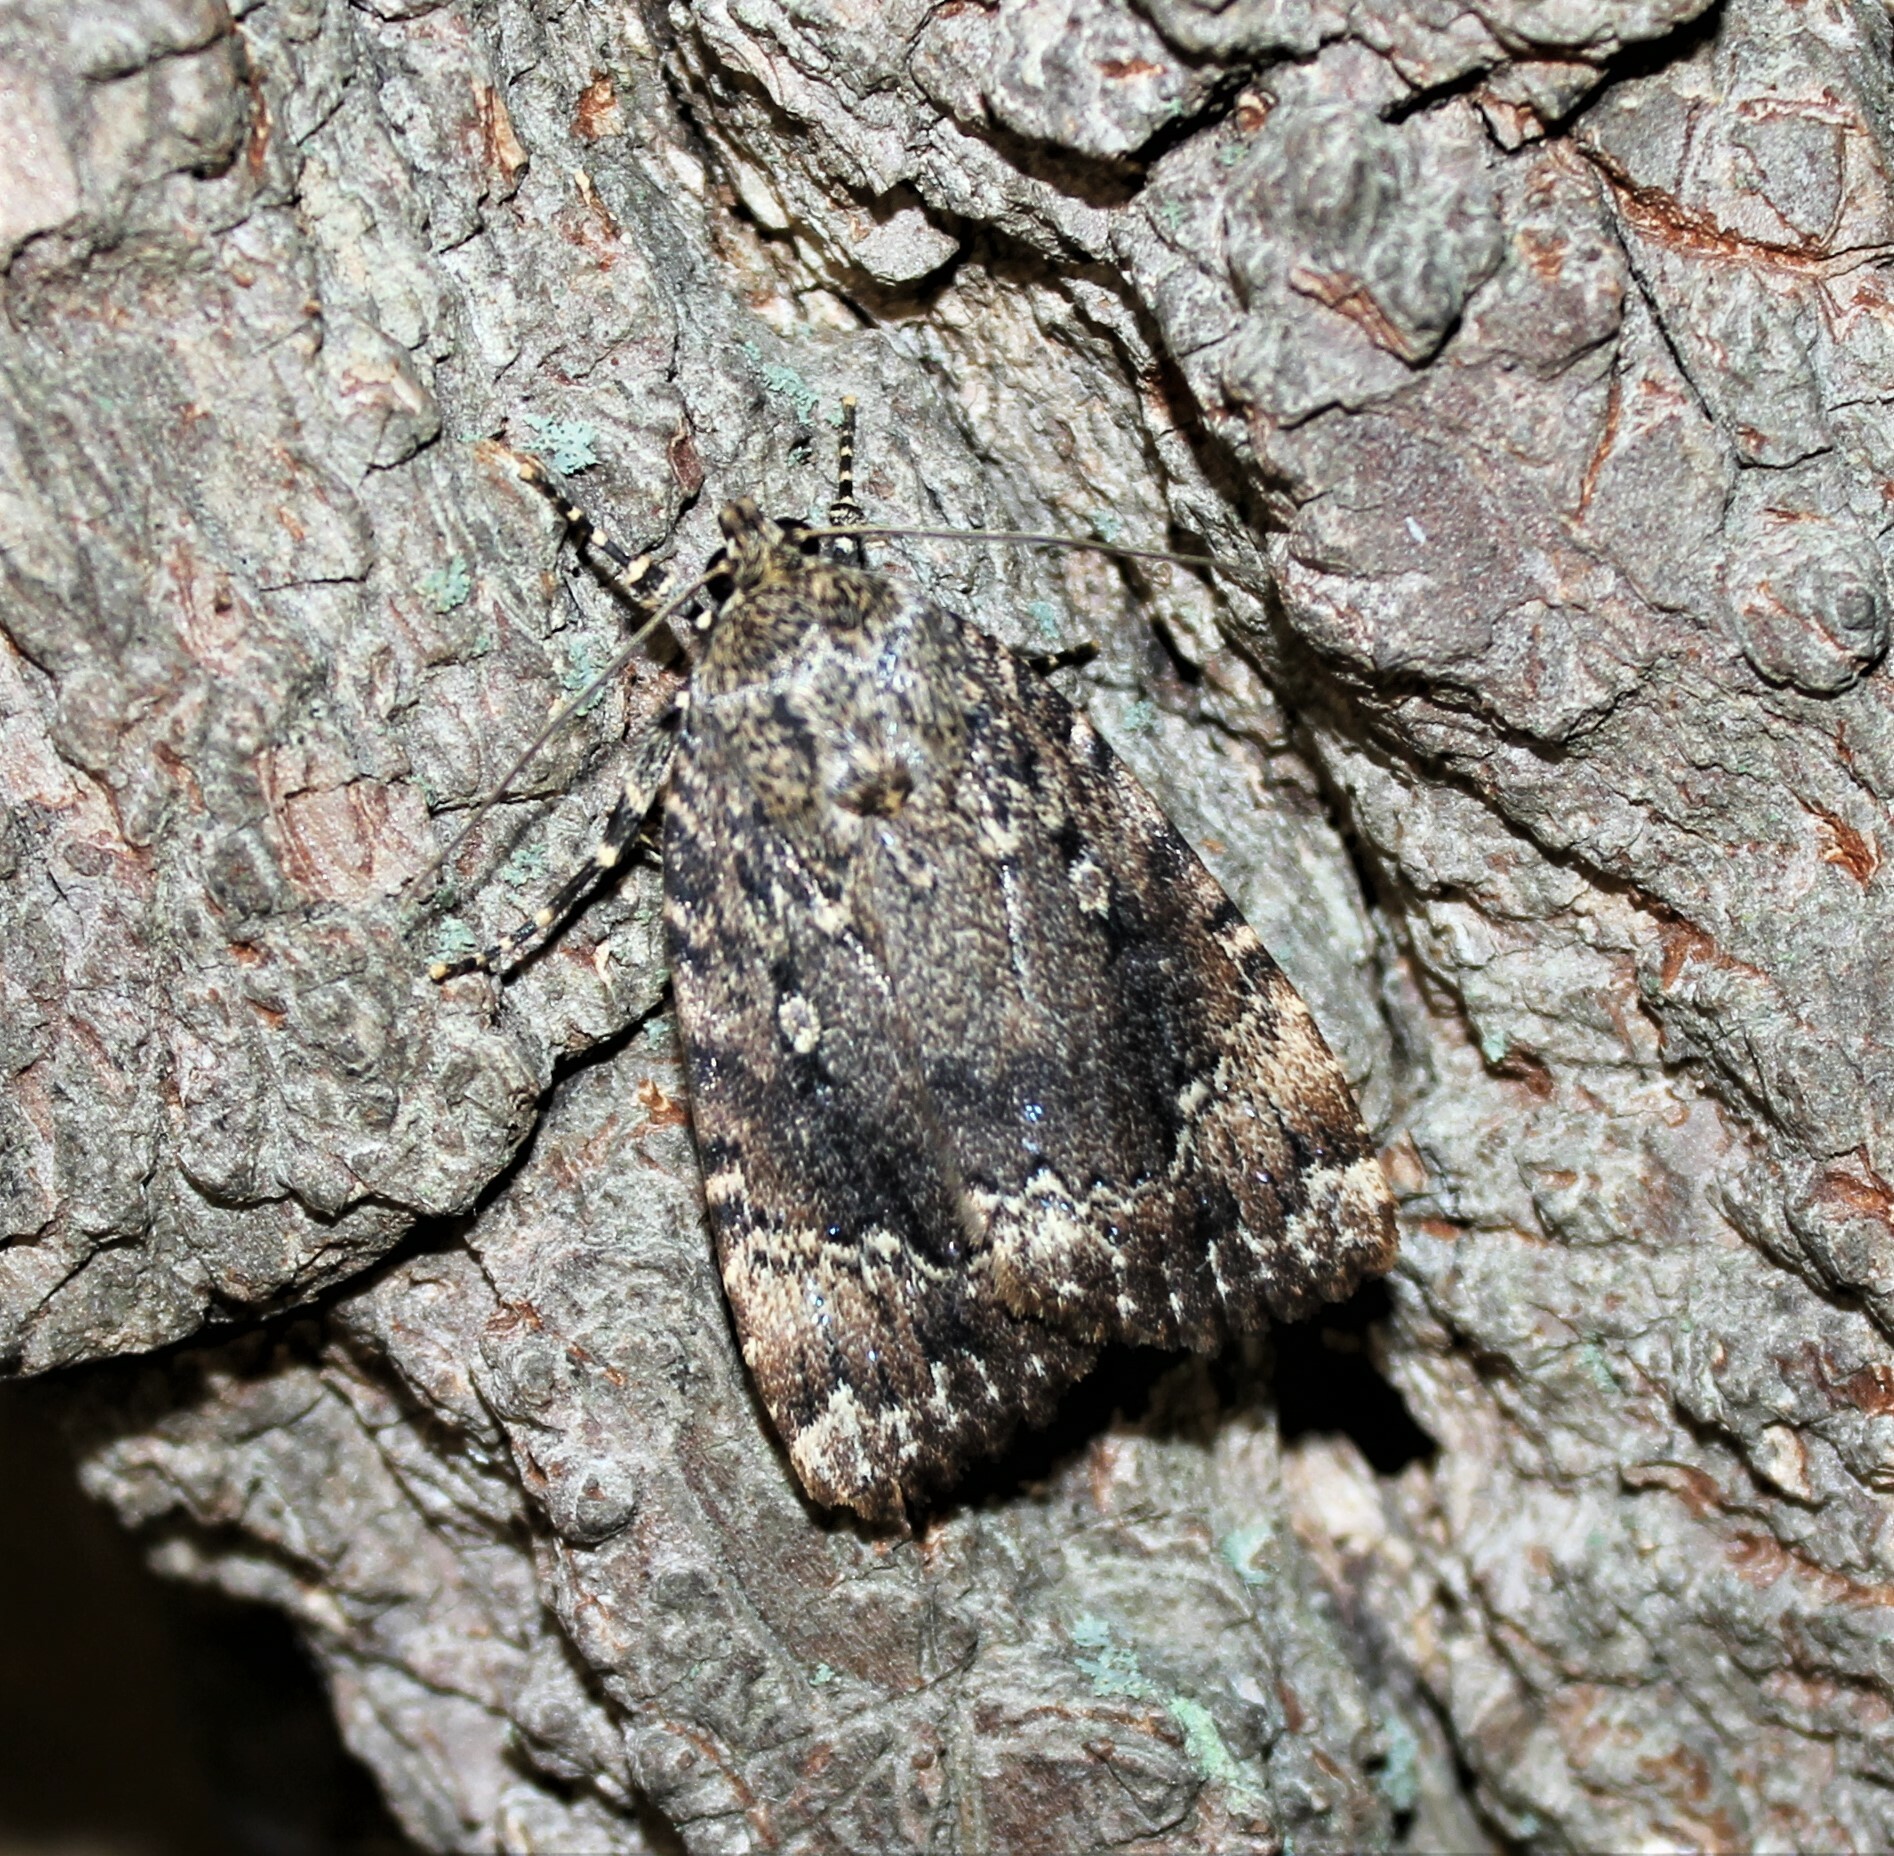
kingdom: Animalia
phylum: Arthropoda
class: Insecta
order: Lepidoptera
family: Noctuidae
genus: Amphipyra
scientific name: Amphipyra pyramidoides
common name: American copper underwing
